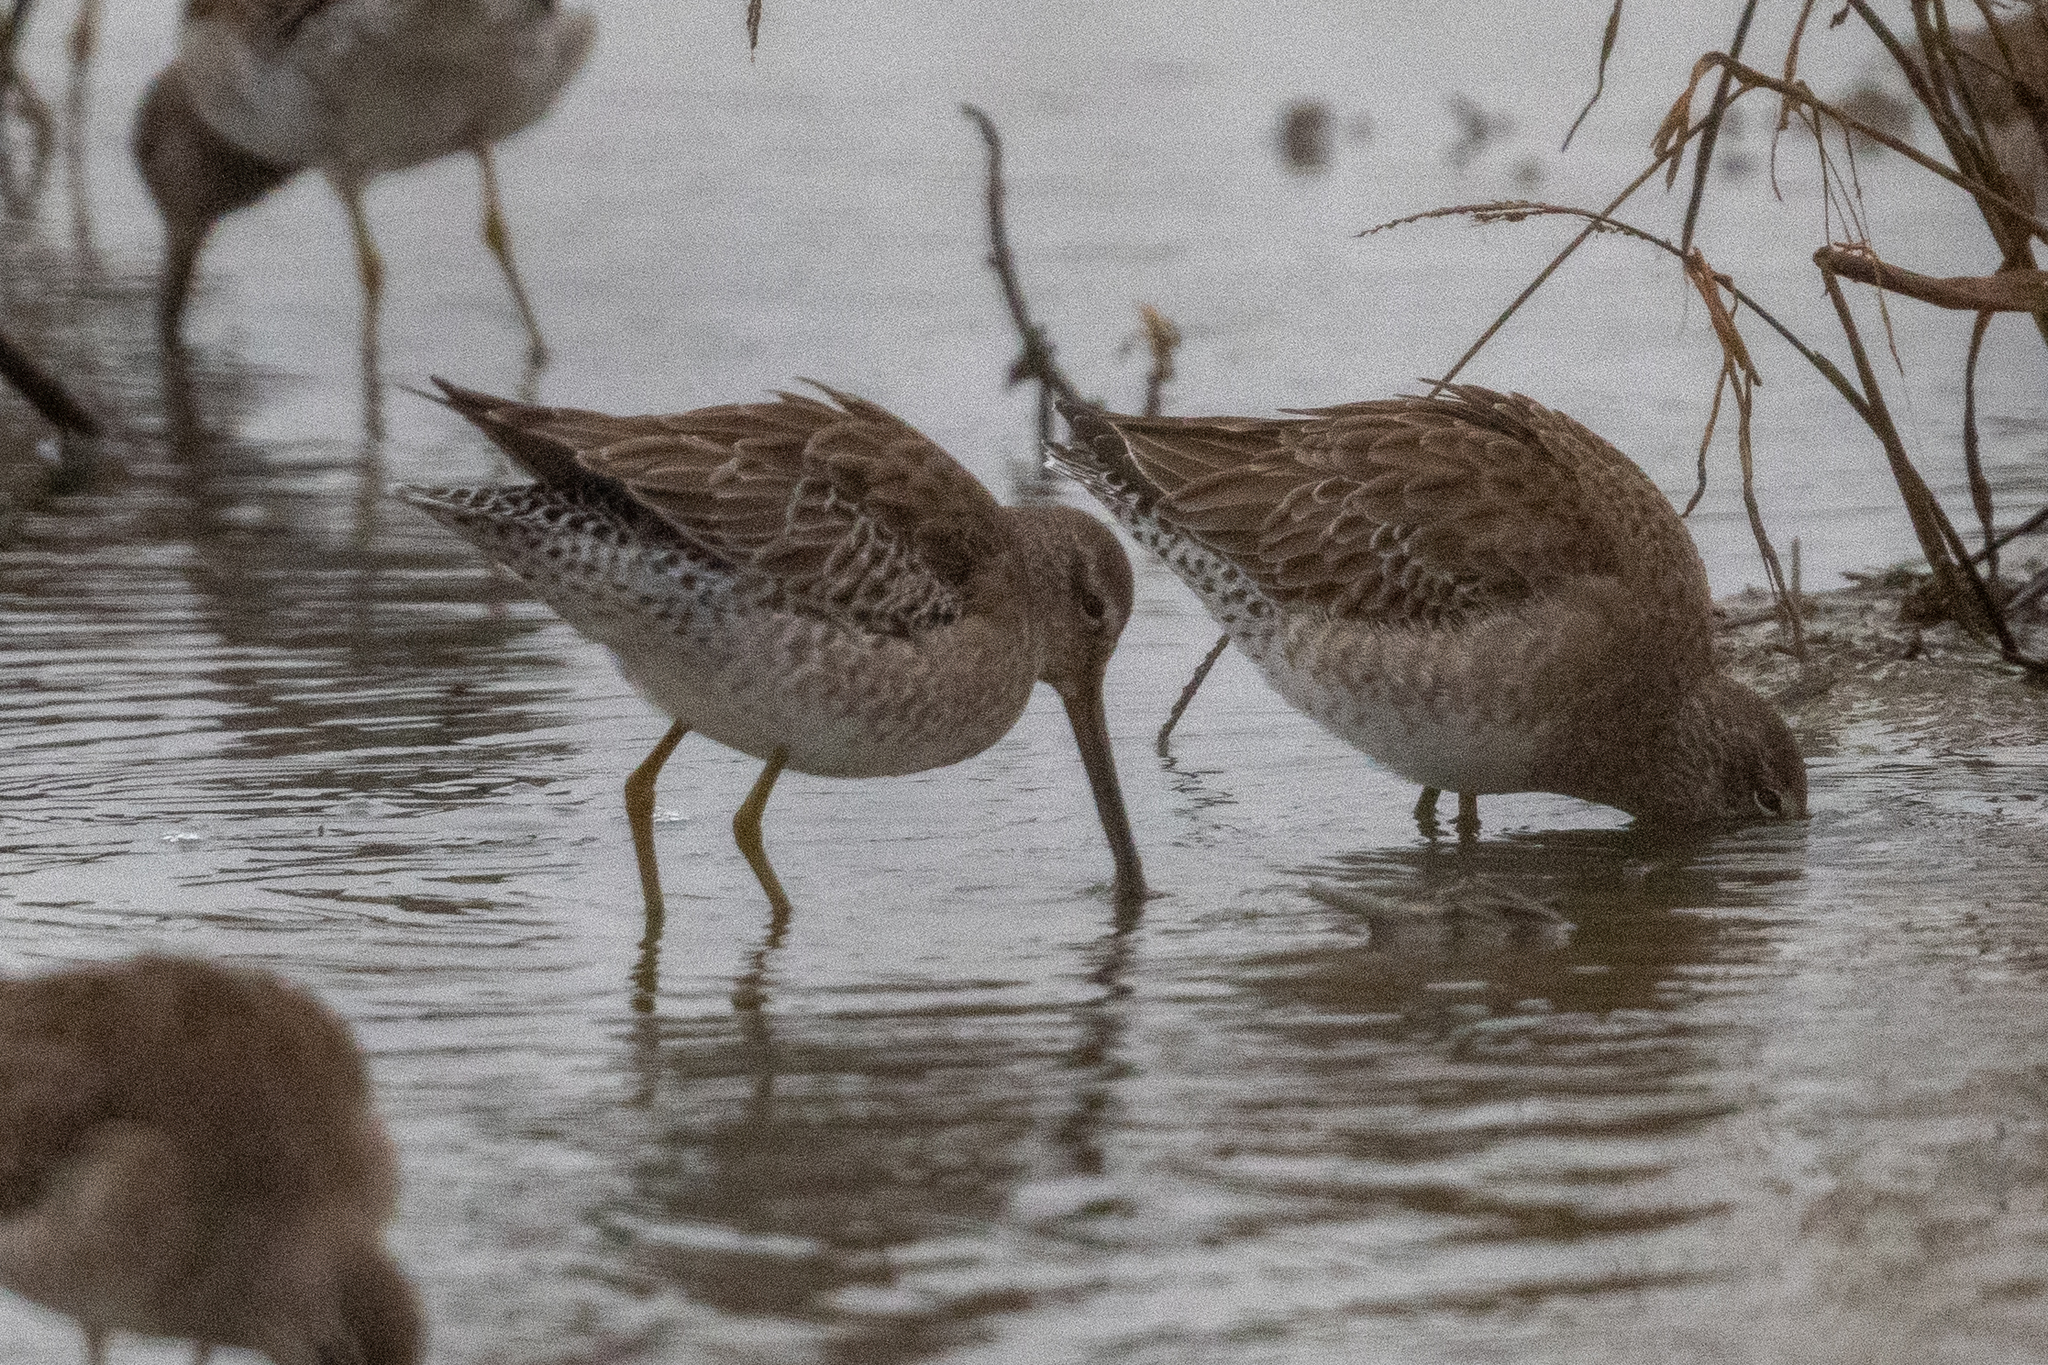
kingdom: Animalia
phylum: Chordata
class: Aves
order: Charadriiformes
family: Scolopacidae
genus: Limnodromus
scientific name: Limnodromus scolopaceus
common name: Long-billed dowitcher
